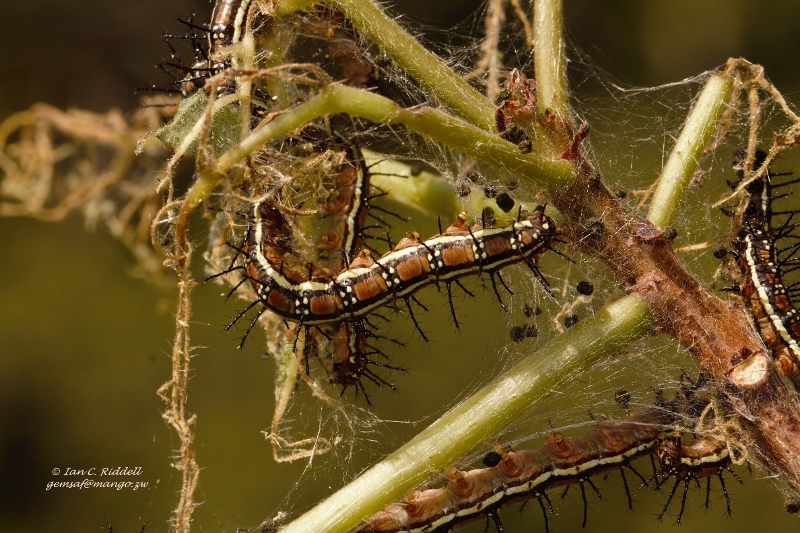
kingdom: Animalia
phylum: Arthropoda
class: Insecta
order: Lepidoptera
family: Nymphalidae
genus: Acraea
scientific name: Acraea Telchinia burni
